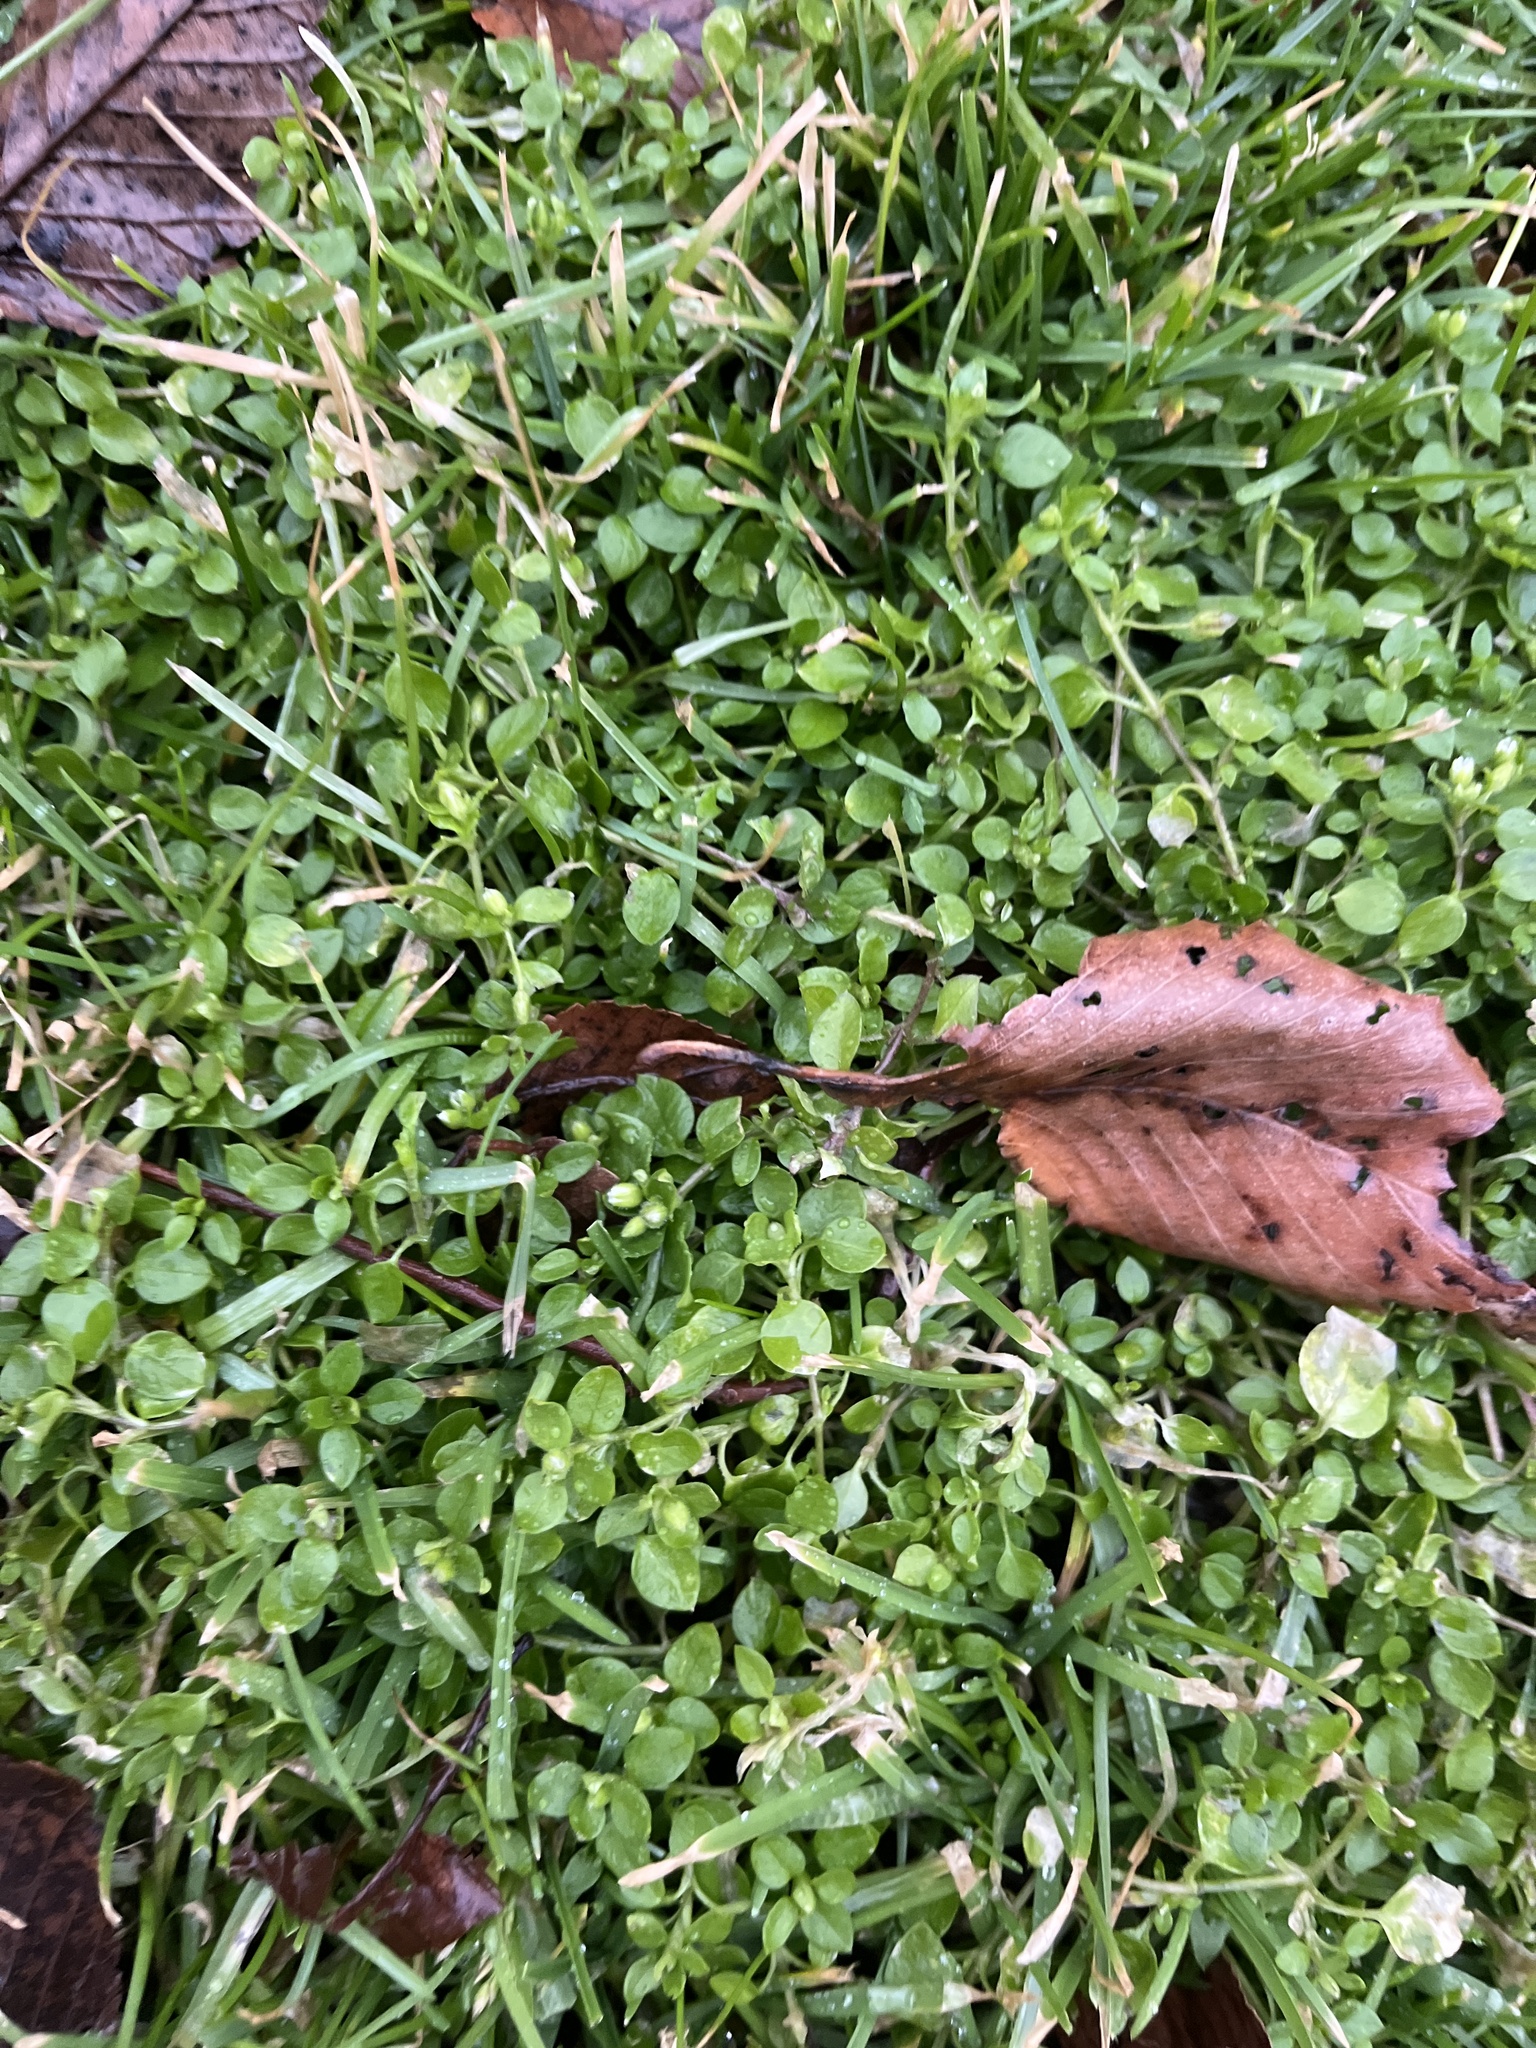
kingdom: Plantae
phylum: Tracheophyta
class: Magnoliopsida
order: Caryophyllales
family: Caryophyllaceae
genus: Stellaria
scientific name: Stellaria media
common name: Common chickweed
